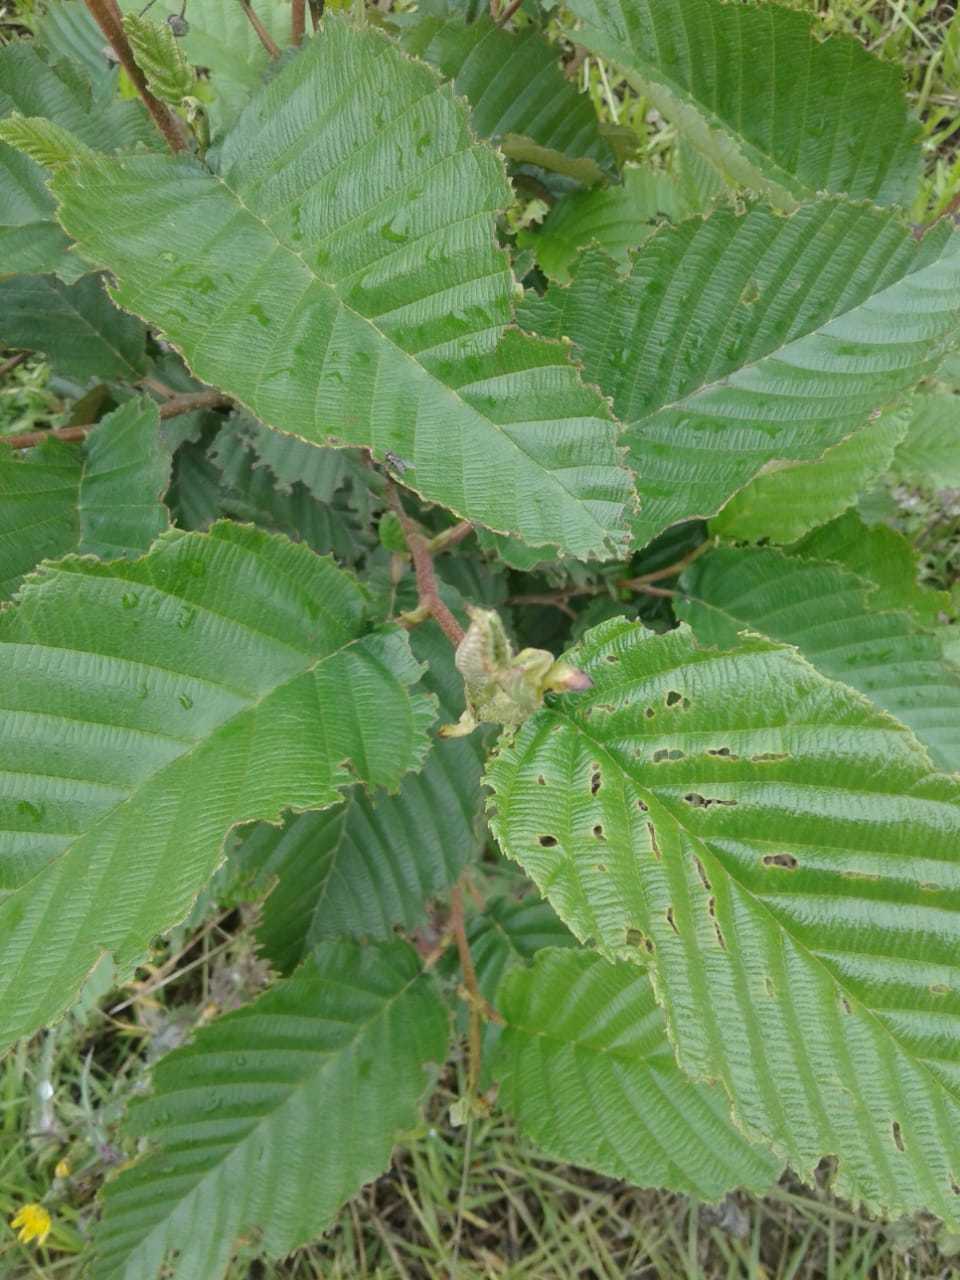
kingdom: Plantae
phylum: Tracheophyta
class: Magnoliopsida
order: Fagales
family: Betulaceae
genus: Alnus
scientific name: Alnus acuminata
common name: Alder
